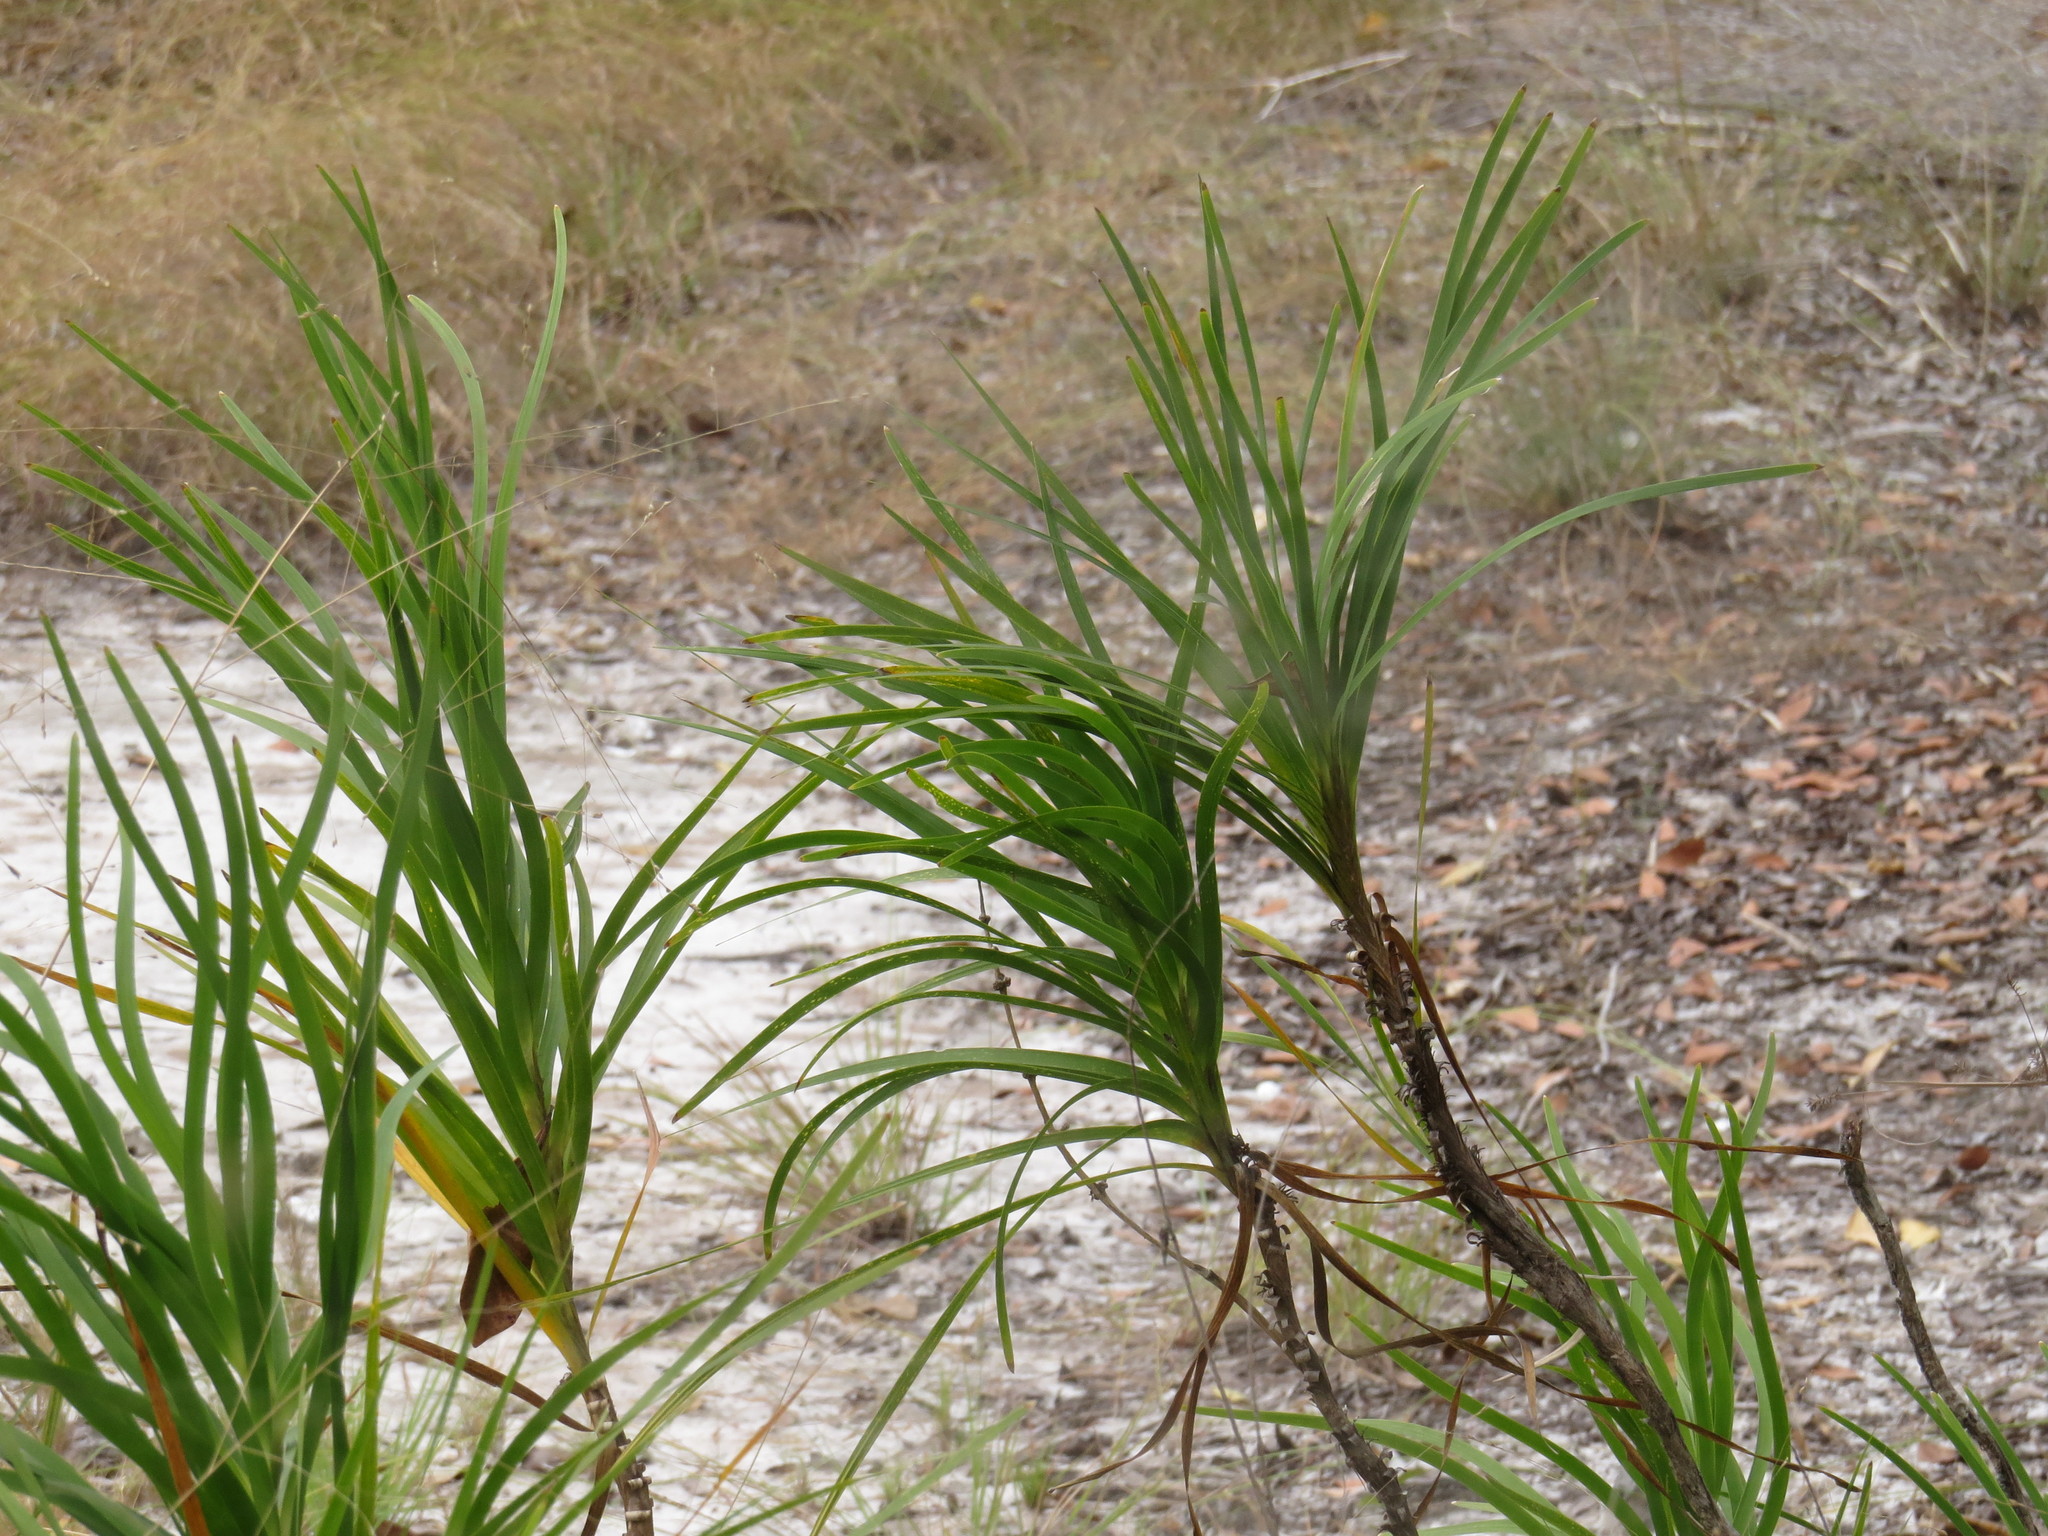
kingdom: Plantae
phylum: Tracheophyta
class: Liliopsida
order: Asparagales
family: Asparagaceae
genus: Lomandra
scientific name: Lomandra banksii
